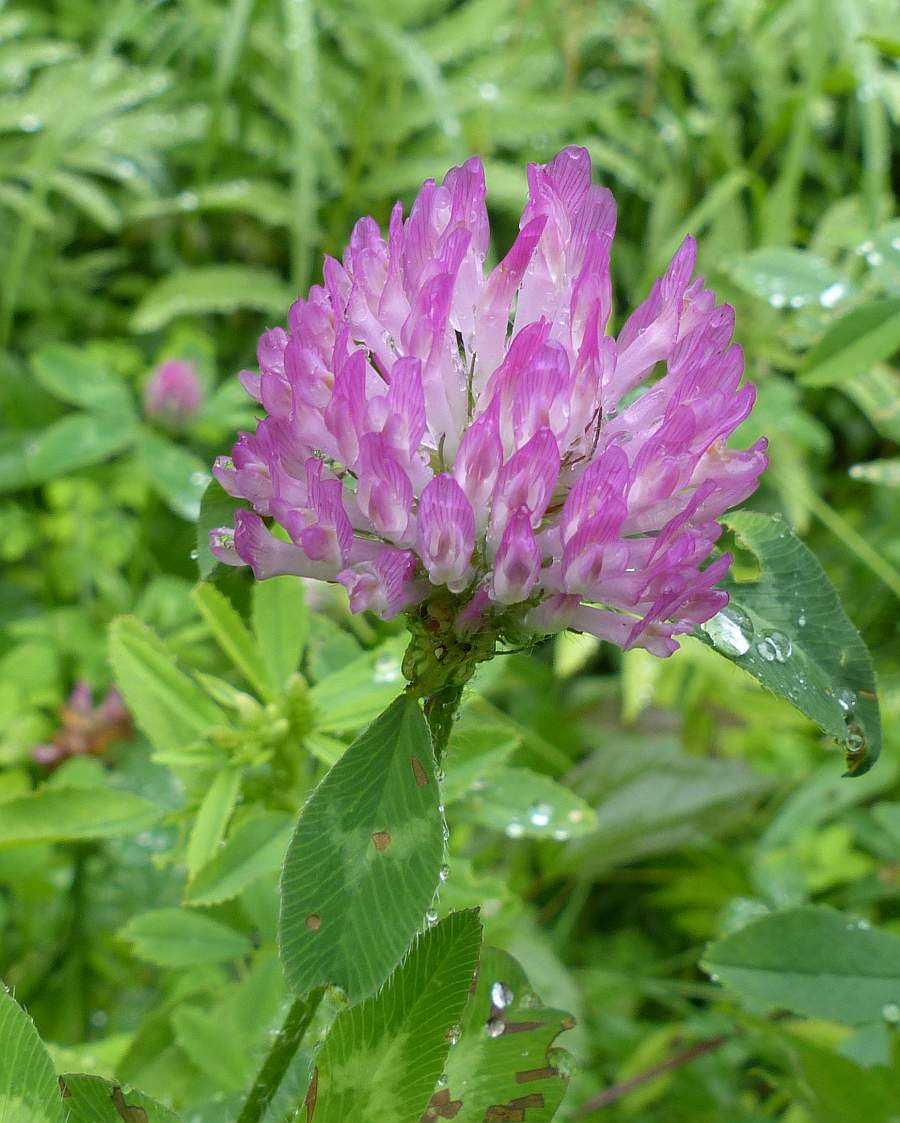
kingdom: Plantae
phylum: Tracheophyta
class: Magnoliopsida
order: Fabales
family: Fabaceae
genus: Trifolium
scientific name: Trifolium pratense
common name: Red clover
